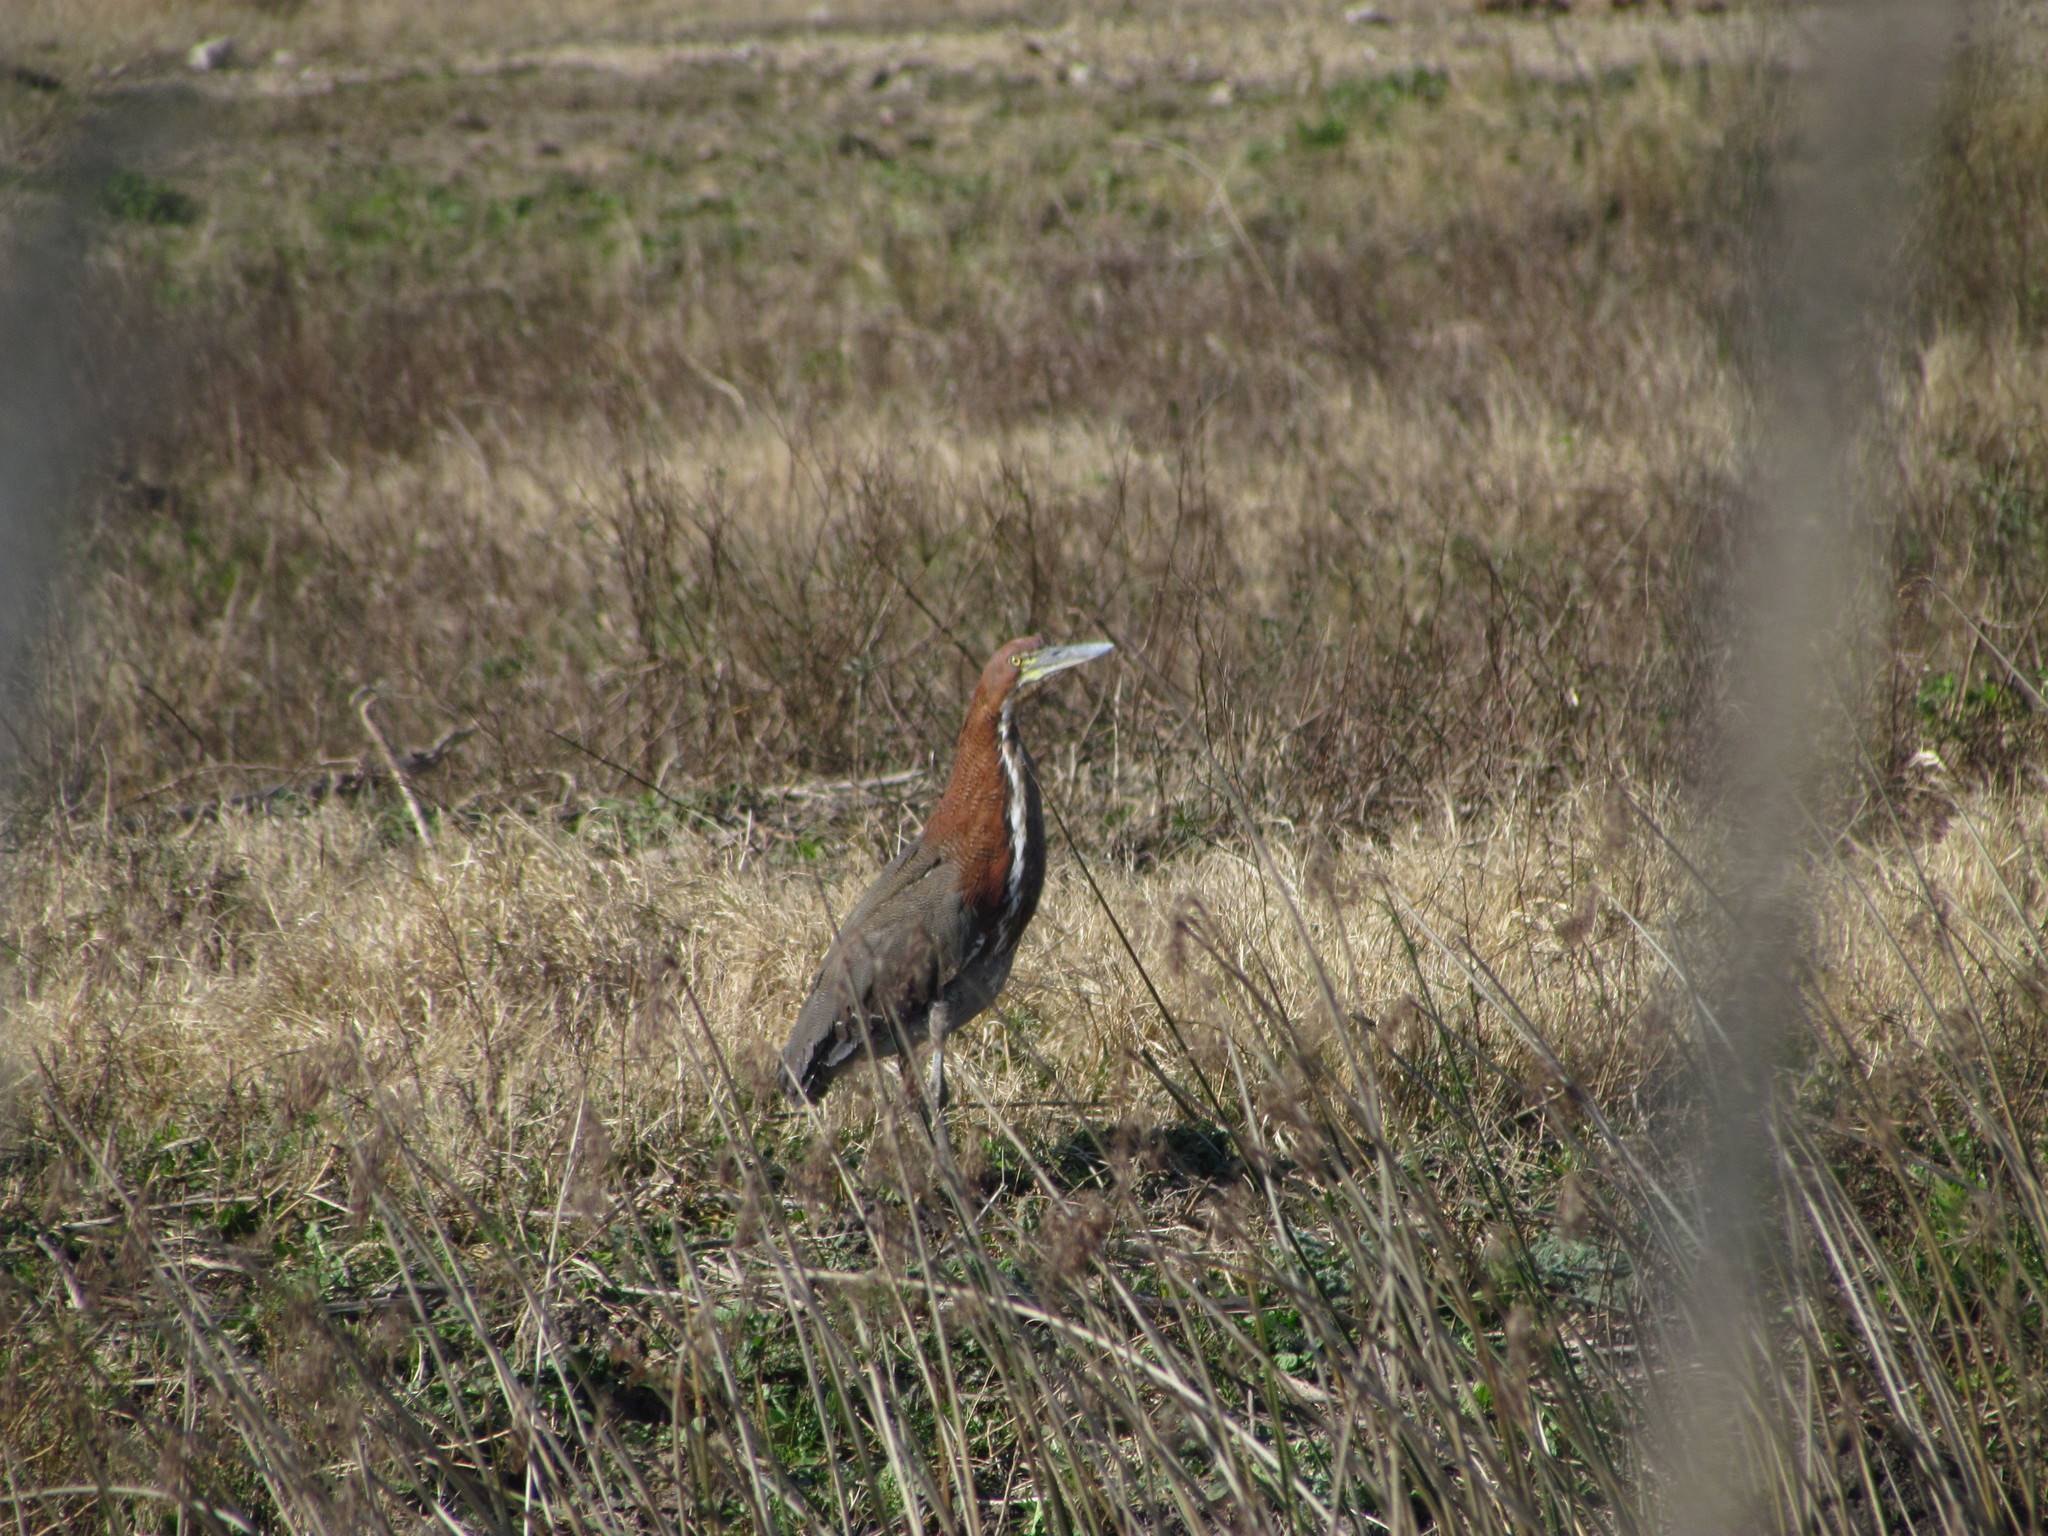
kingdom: Animalia
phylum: Chordata
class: Aves
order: Pelecaniformes
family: Ardeidae
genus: Tigrisoma
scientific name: Tigrisoma lineatum
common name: Rufescent tiger-heron
